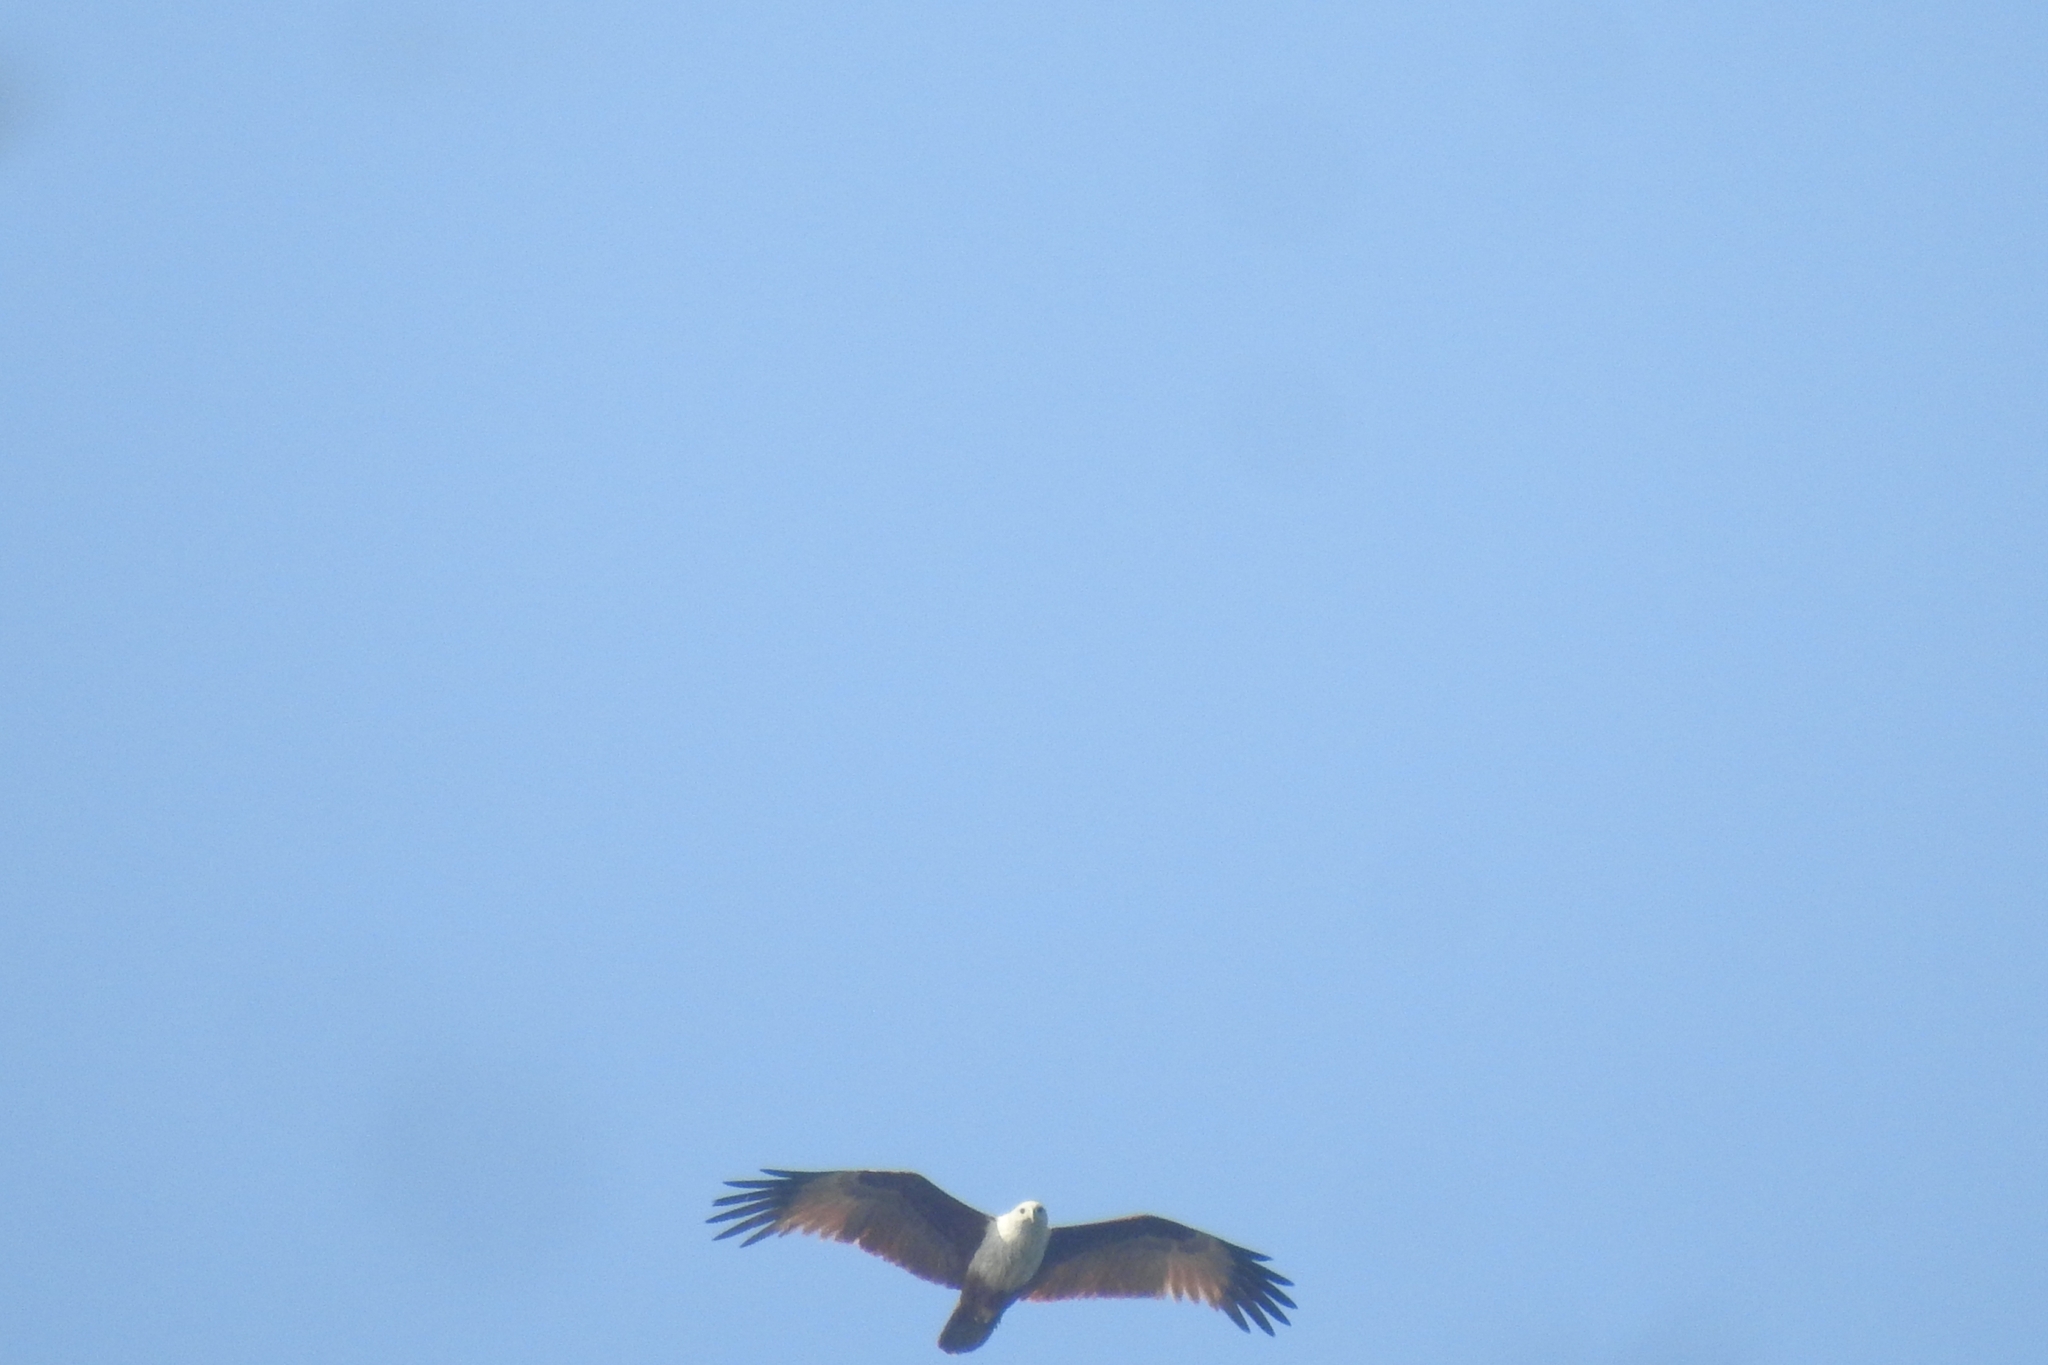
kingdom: Animalia
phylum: Chordata
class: Aves
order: Accipitriformes
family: Accipitridae
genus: Haliastur
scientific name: Haliastur indus
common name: Brahminy kite
